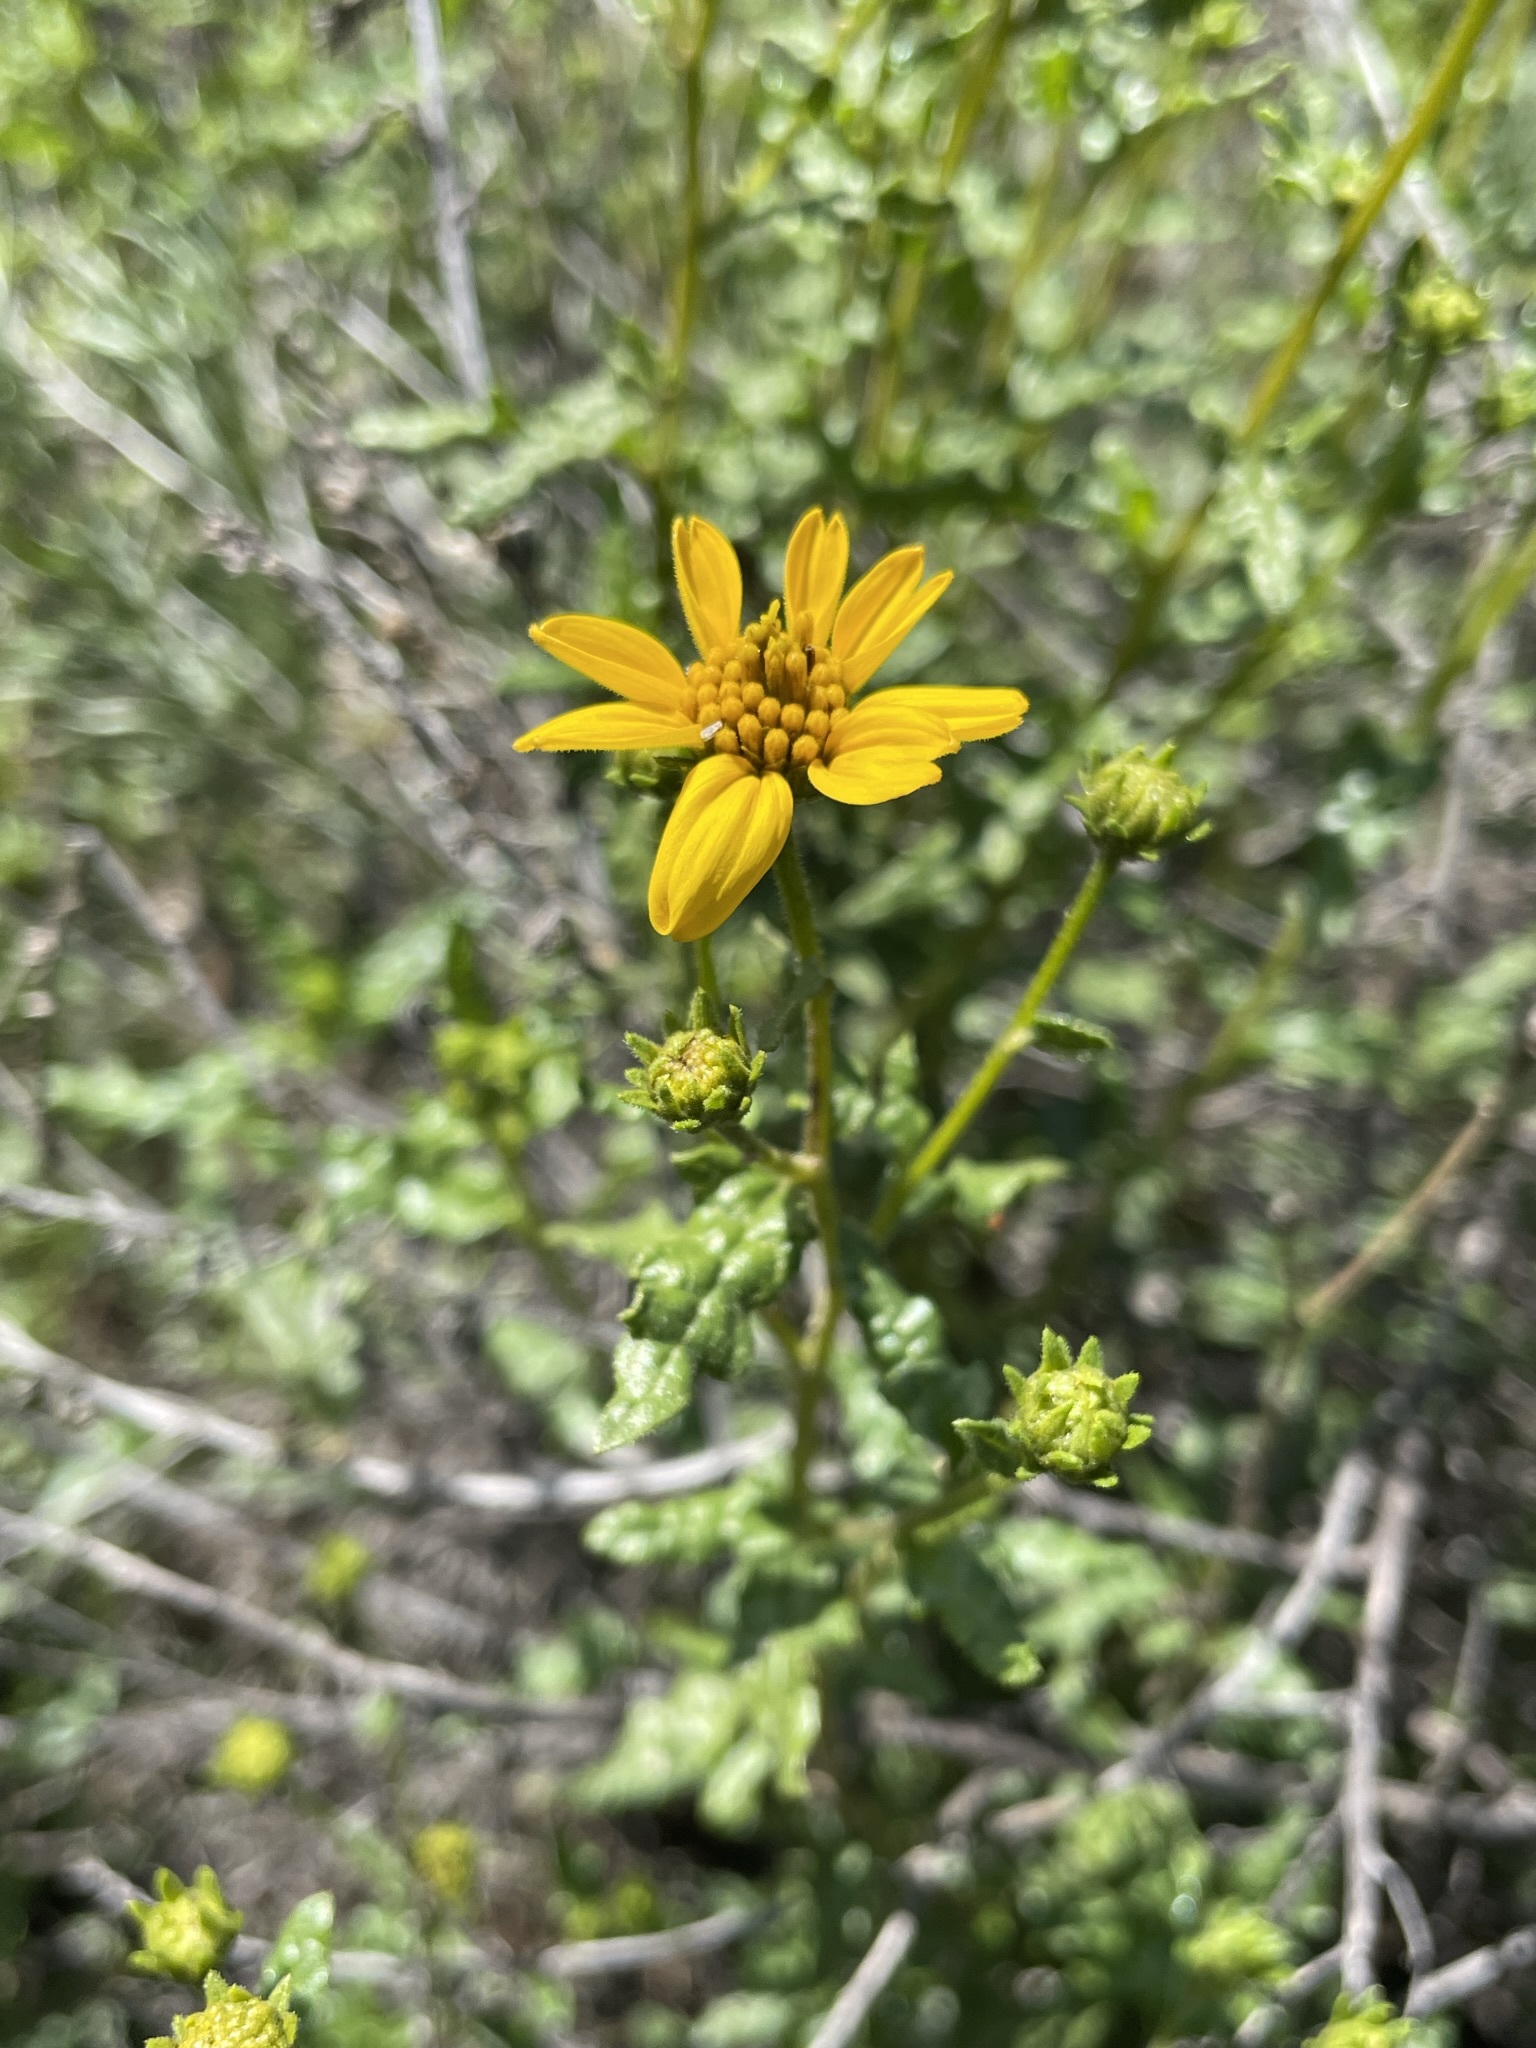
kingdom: Plantae
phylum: Tracheophyta
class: Magnoliopsida
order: Asterales
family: Asteraceae
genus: Bahiopsis
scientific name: Bahiopsis laciniata
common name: San diego county viguiera
